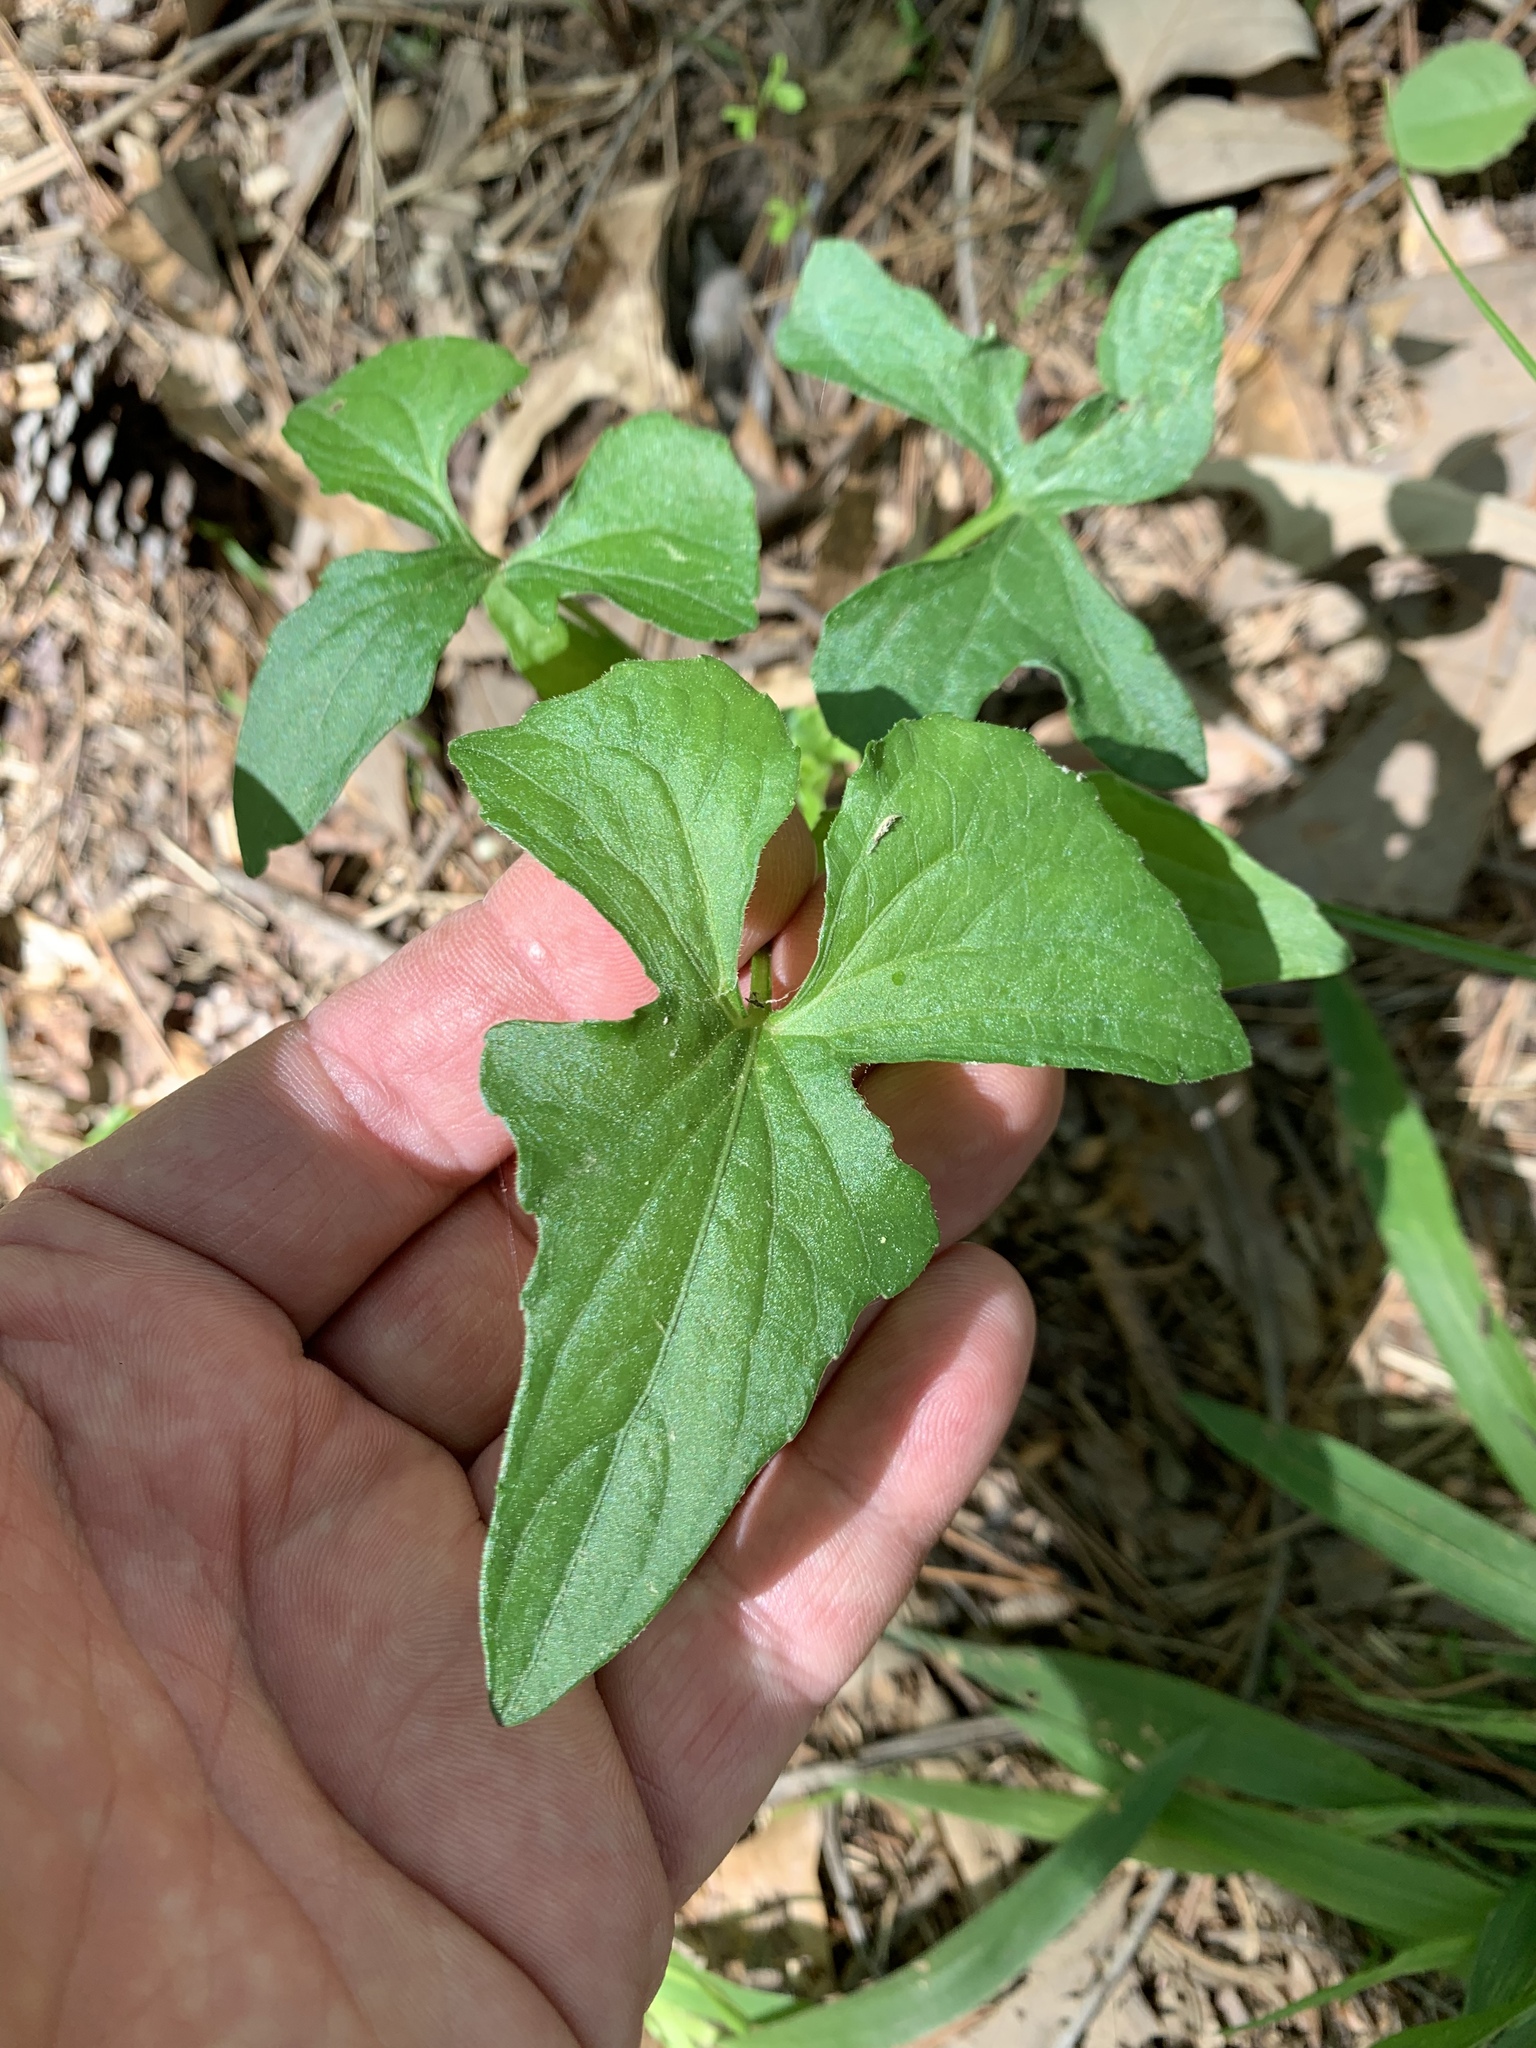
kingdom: Plantae
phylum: Tracheophyta
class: Magnoliopsida
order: Malpighiales
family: Violaceae
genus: Viola
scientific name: Viola palmata
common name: Early blue violet
